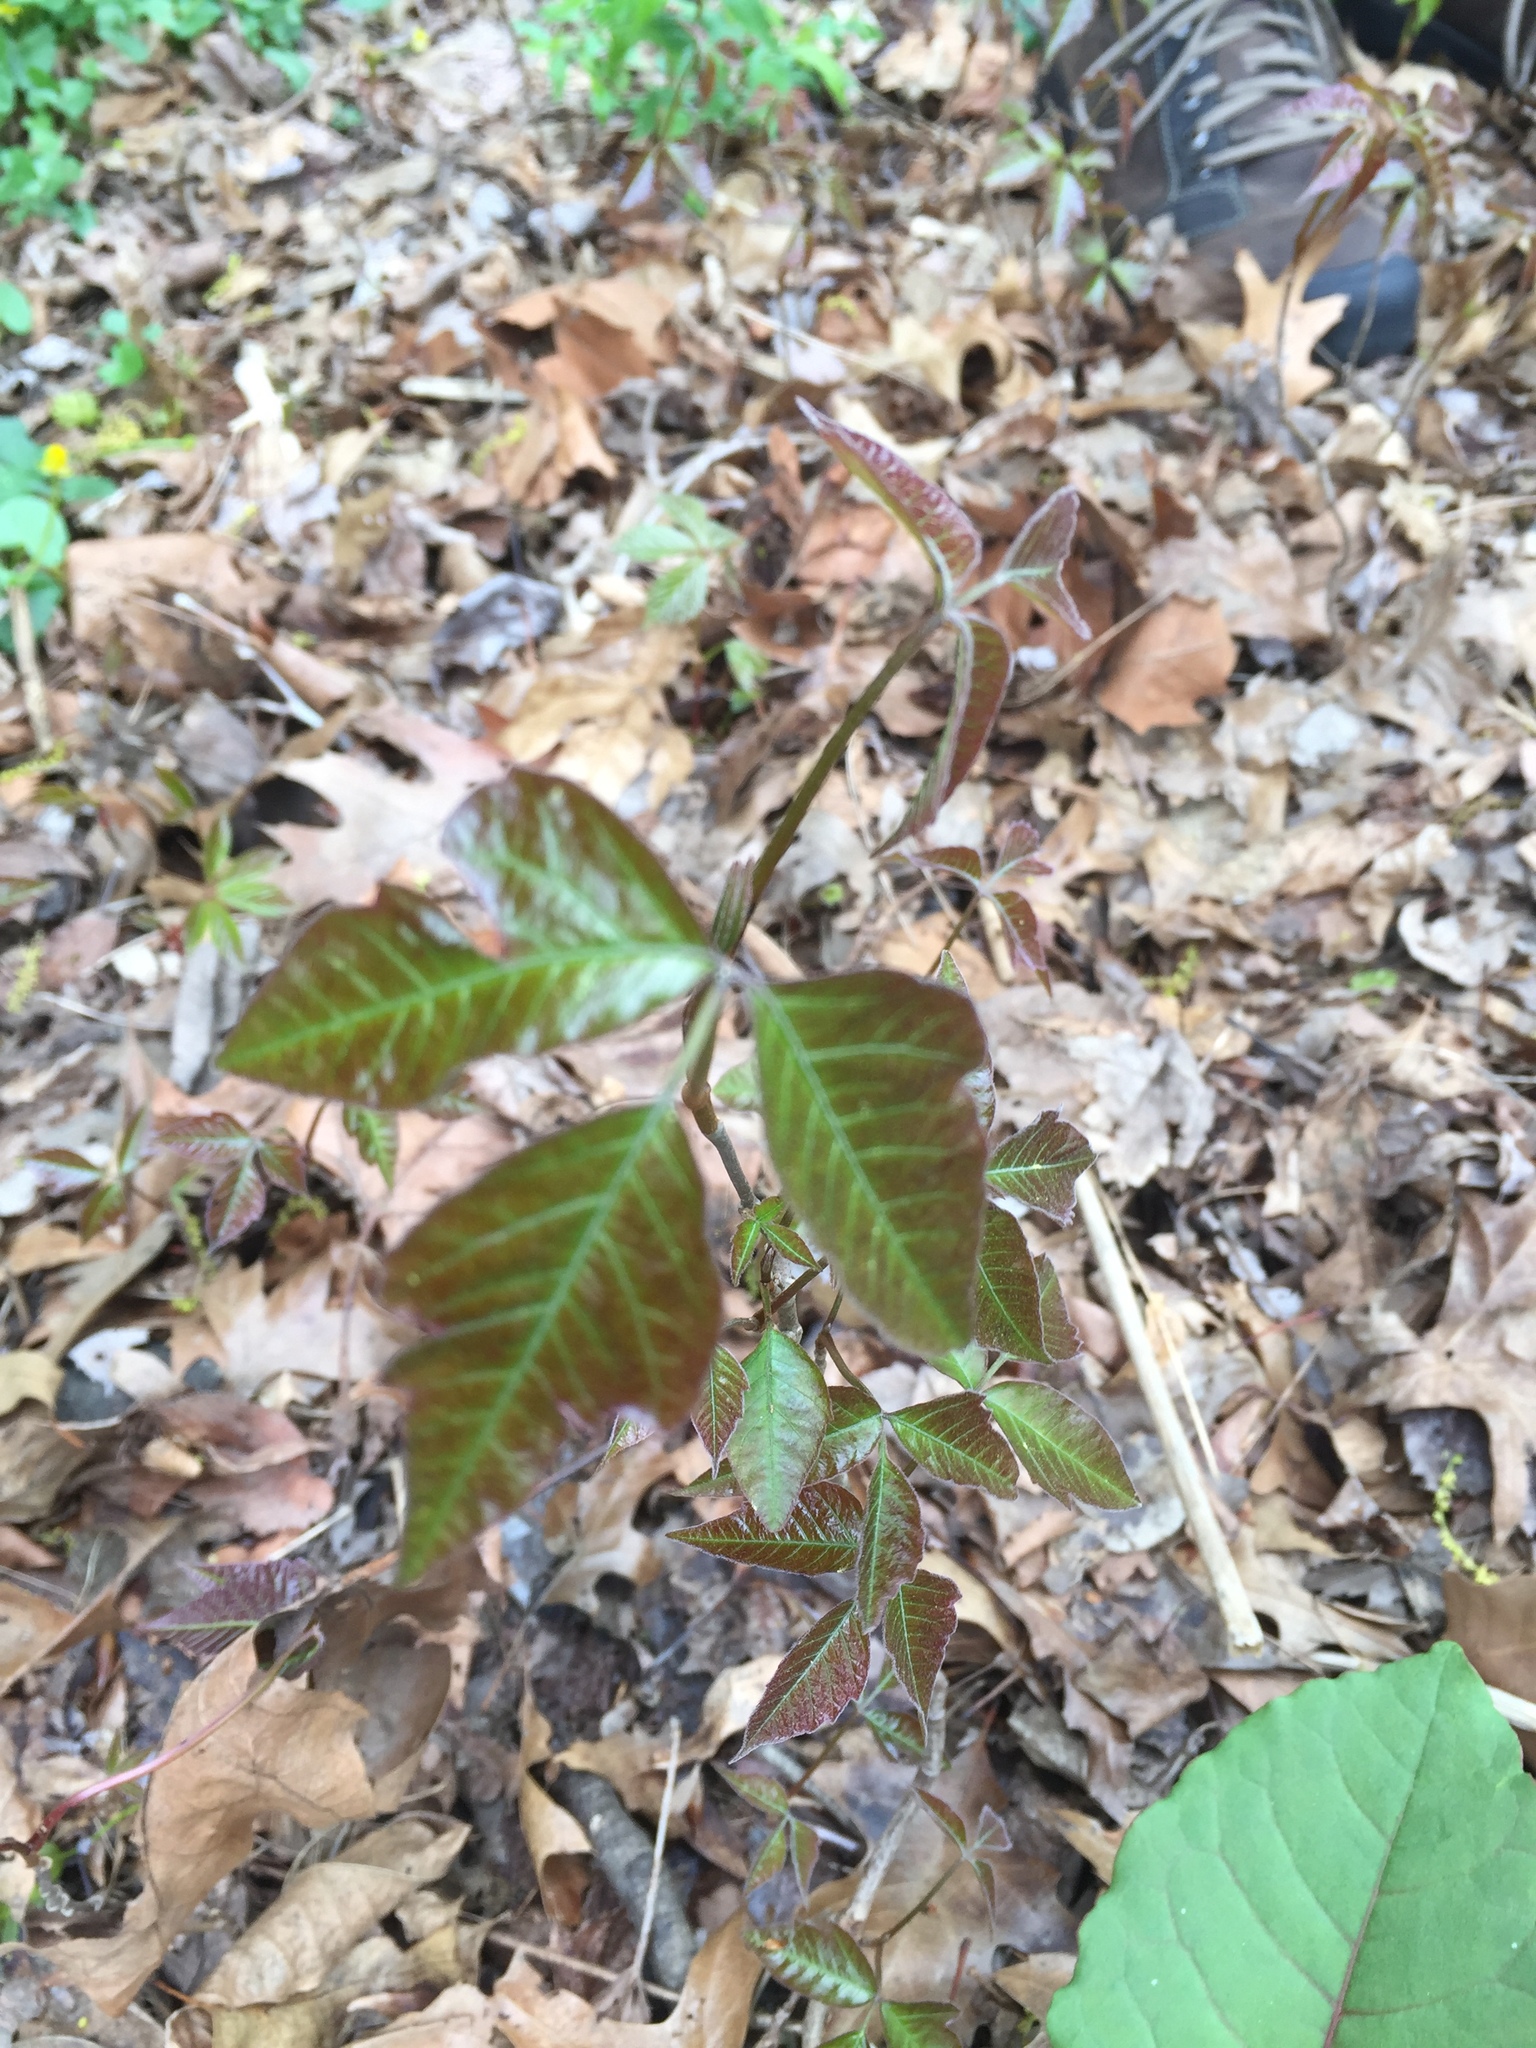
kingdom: Plantae
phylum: Tracheophyta
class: Magnoliopsida
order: Sapindales
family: Anacardiaceae
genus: Toxicodendron
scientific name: Toxicodendron radicans
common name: Poison ivy
